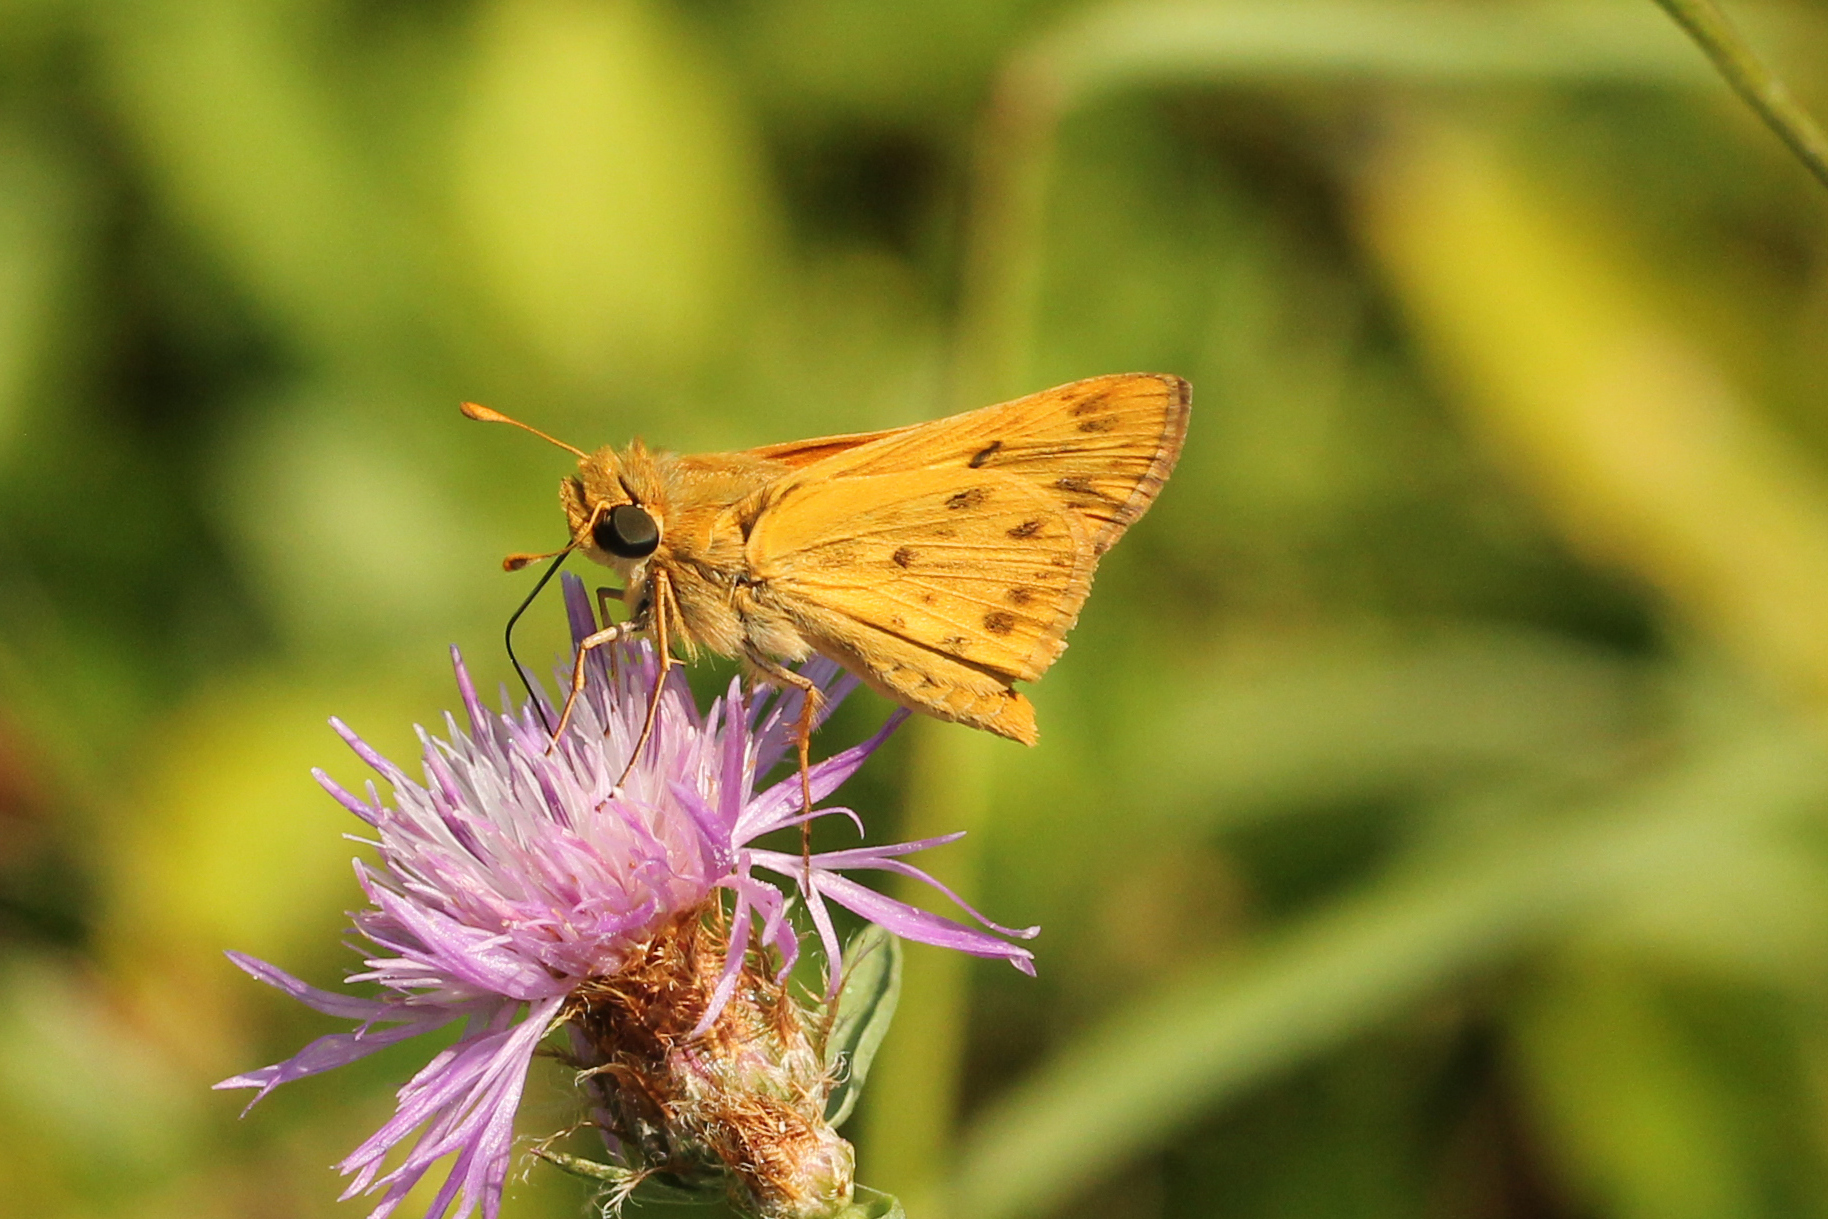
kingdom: Animalia
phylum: Arthropoda
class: Insecta
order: Lepidoptera
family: Hesperiidae
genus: Hylephila
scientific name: Hylephila phyleus
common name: Fiery skipper
